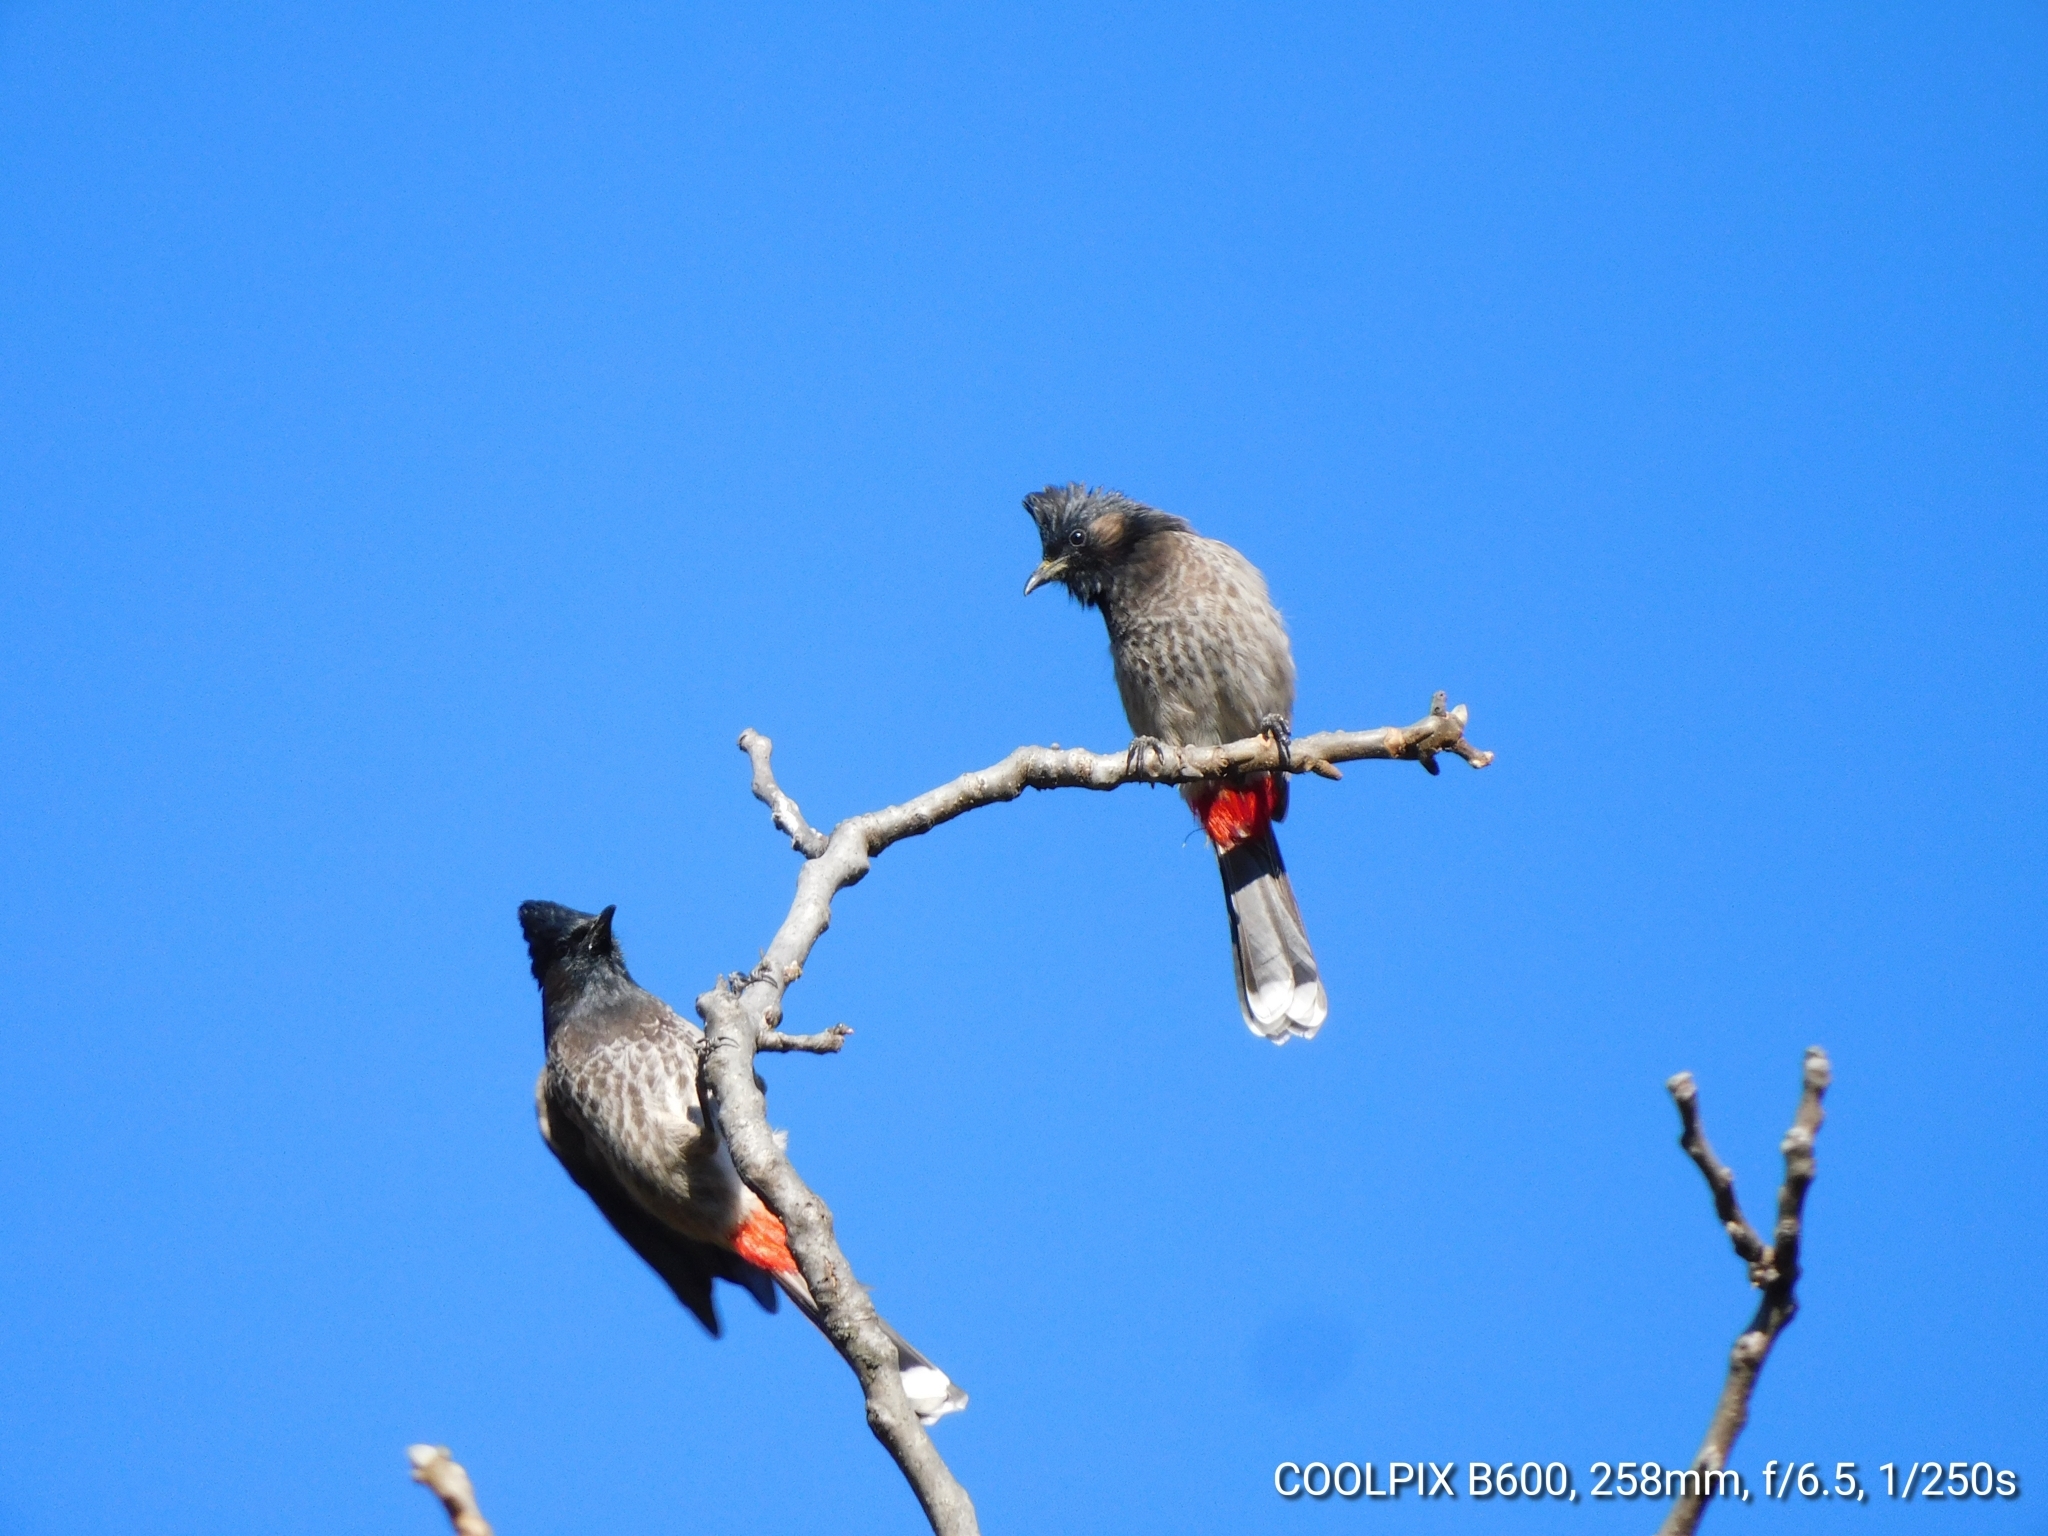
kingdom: Animalia
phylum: Chordata
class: Aves
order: Passeriformes
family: Pycnonotidae
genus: Pycnonotus
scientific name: Pycnonotus cafer
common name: Red-vented bulbul
